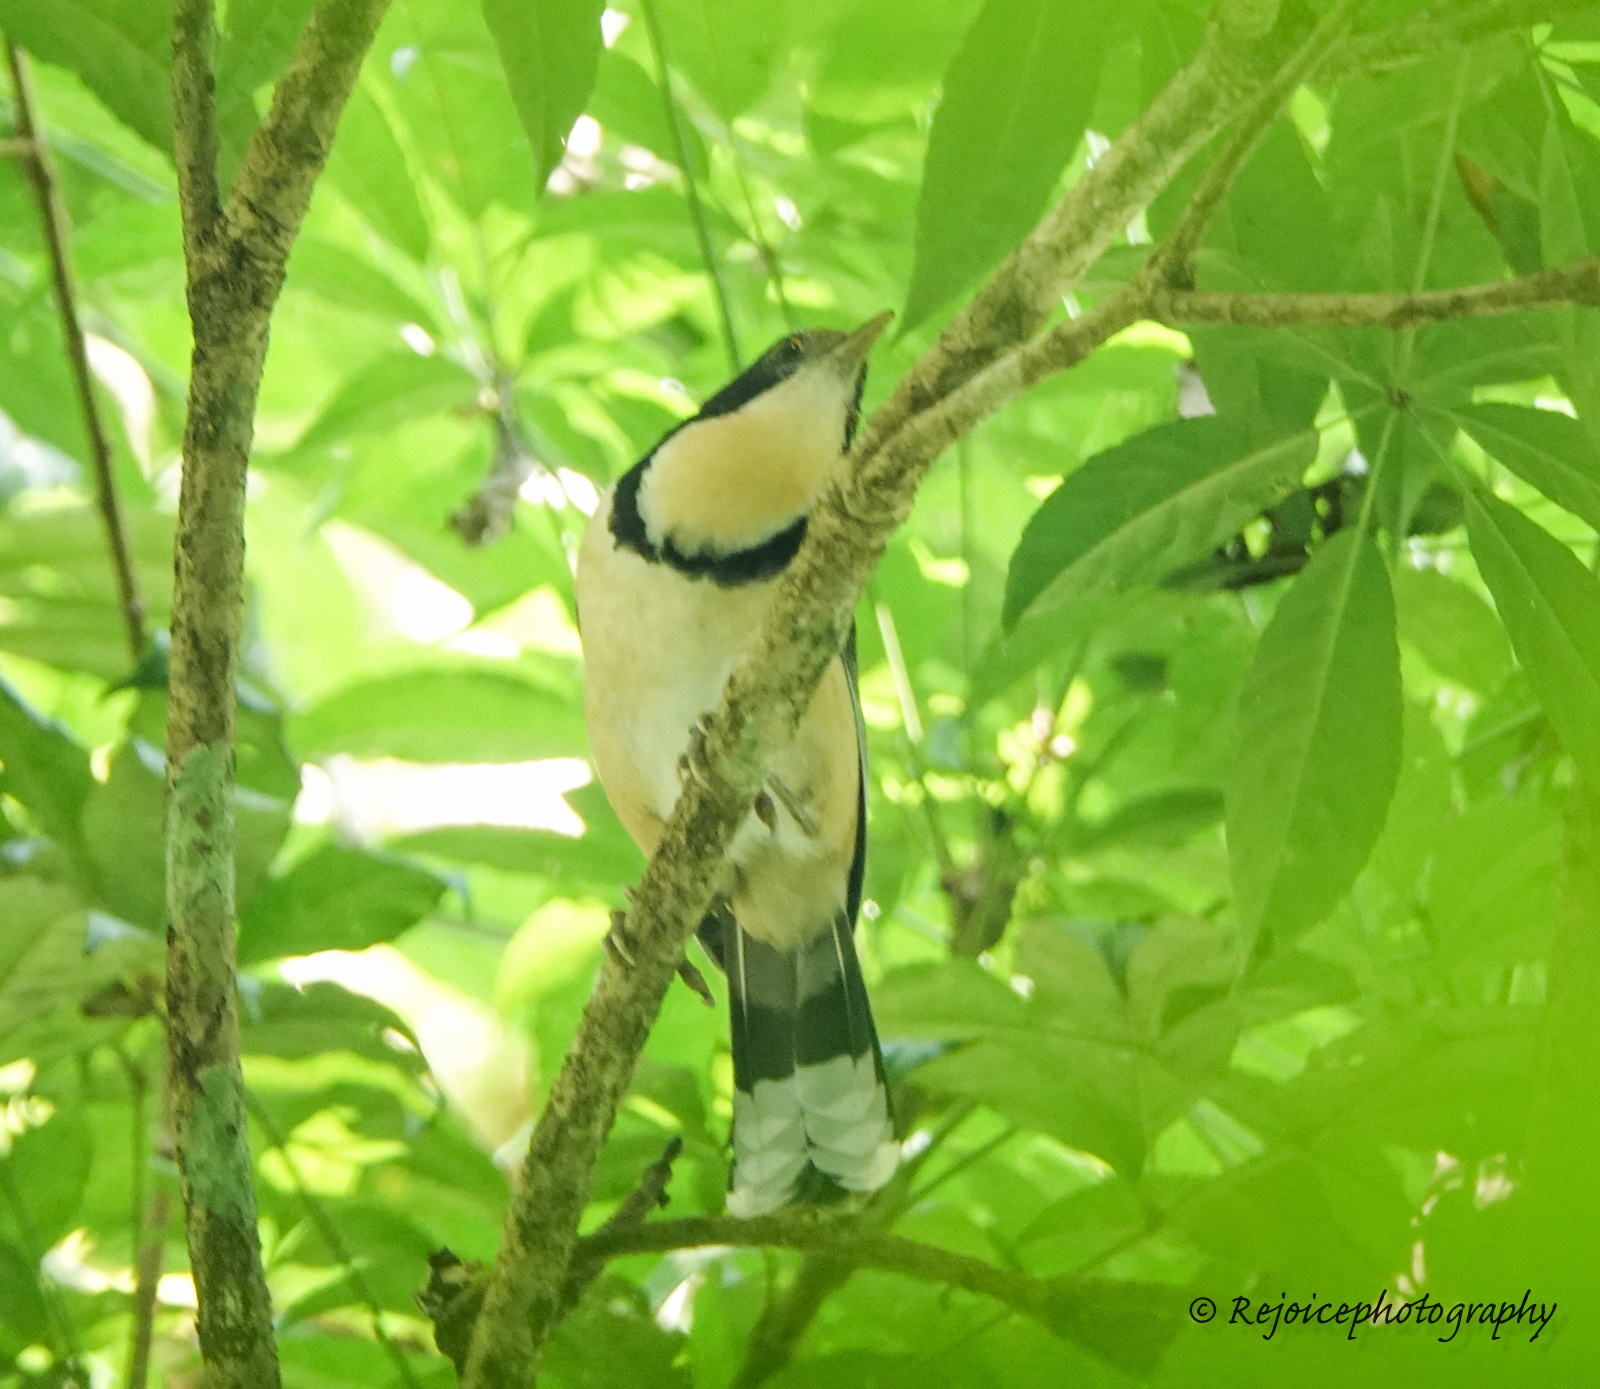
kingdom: Animalia
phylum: Chordata
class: Aves
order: Passeriformes
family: Leiothrichidae
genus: Garrulax
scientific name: Garrulax pectoralis
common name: Greater necklaced laughingthrush
